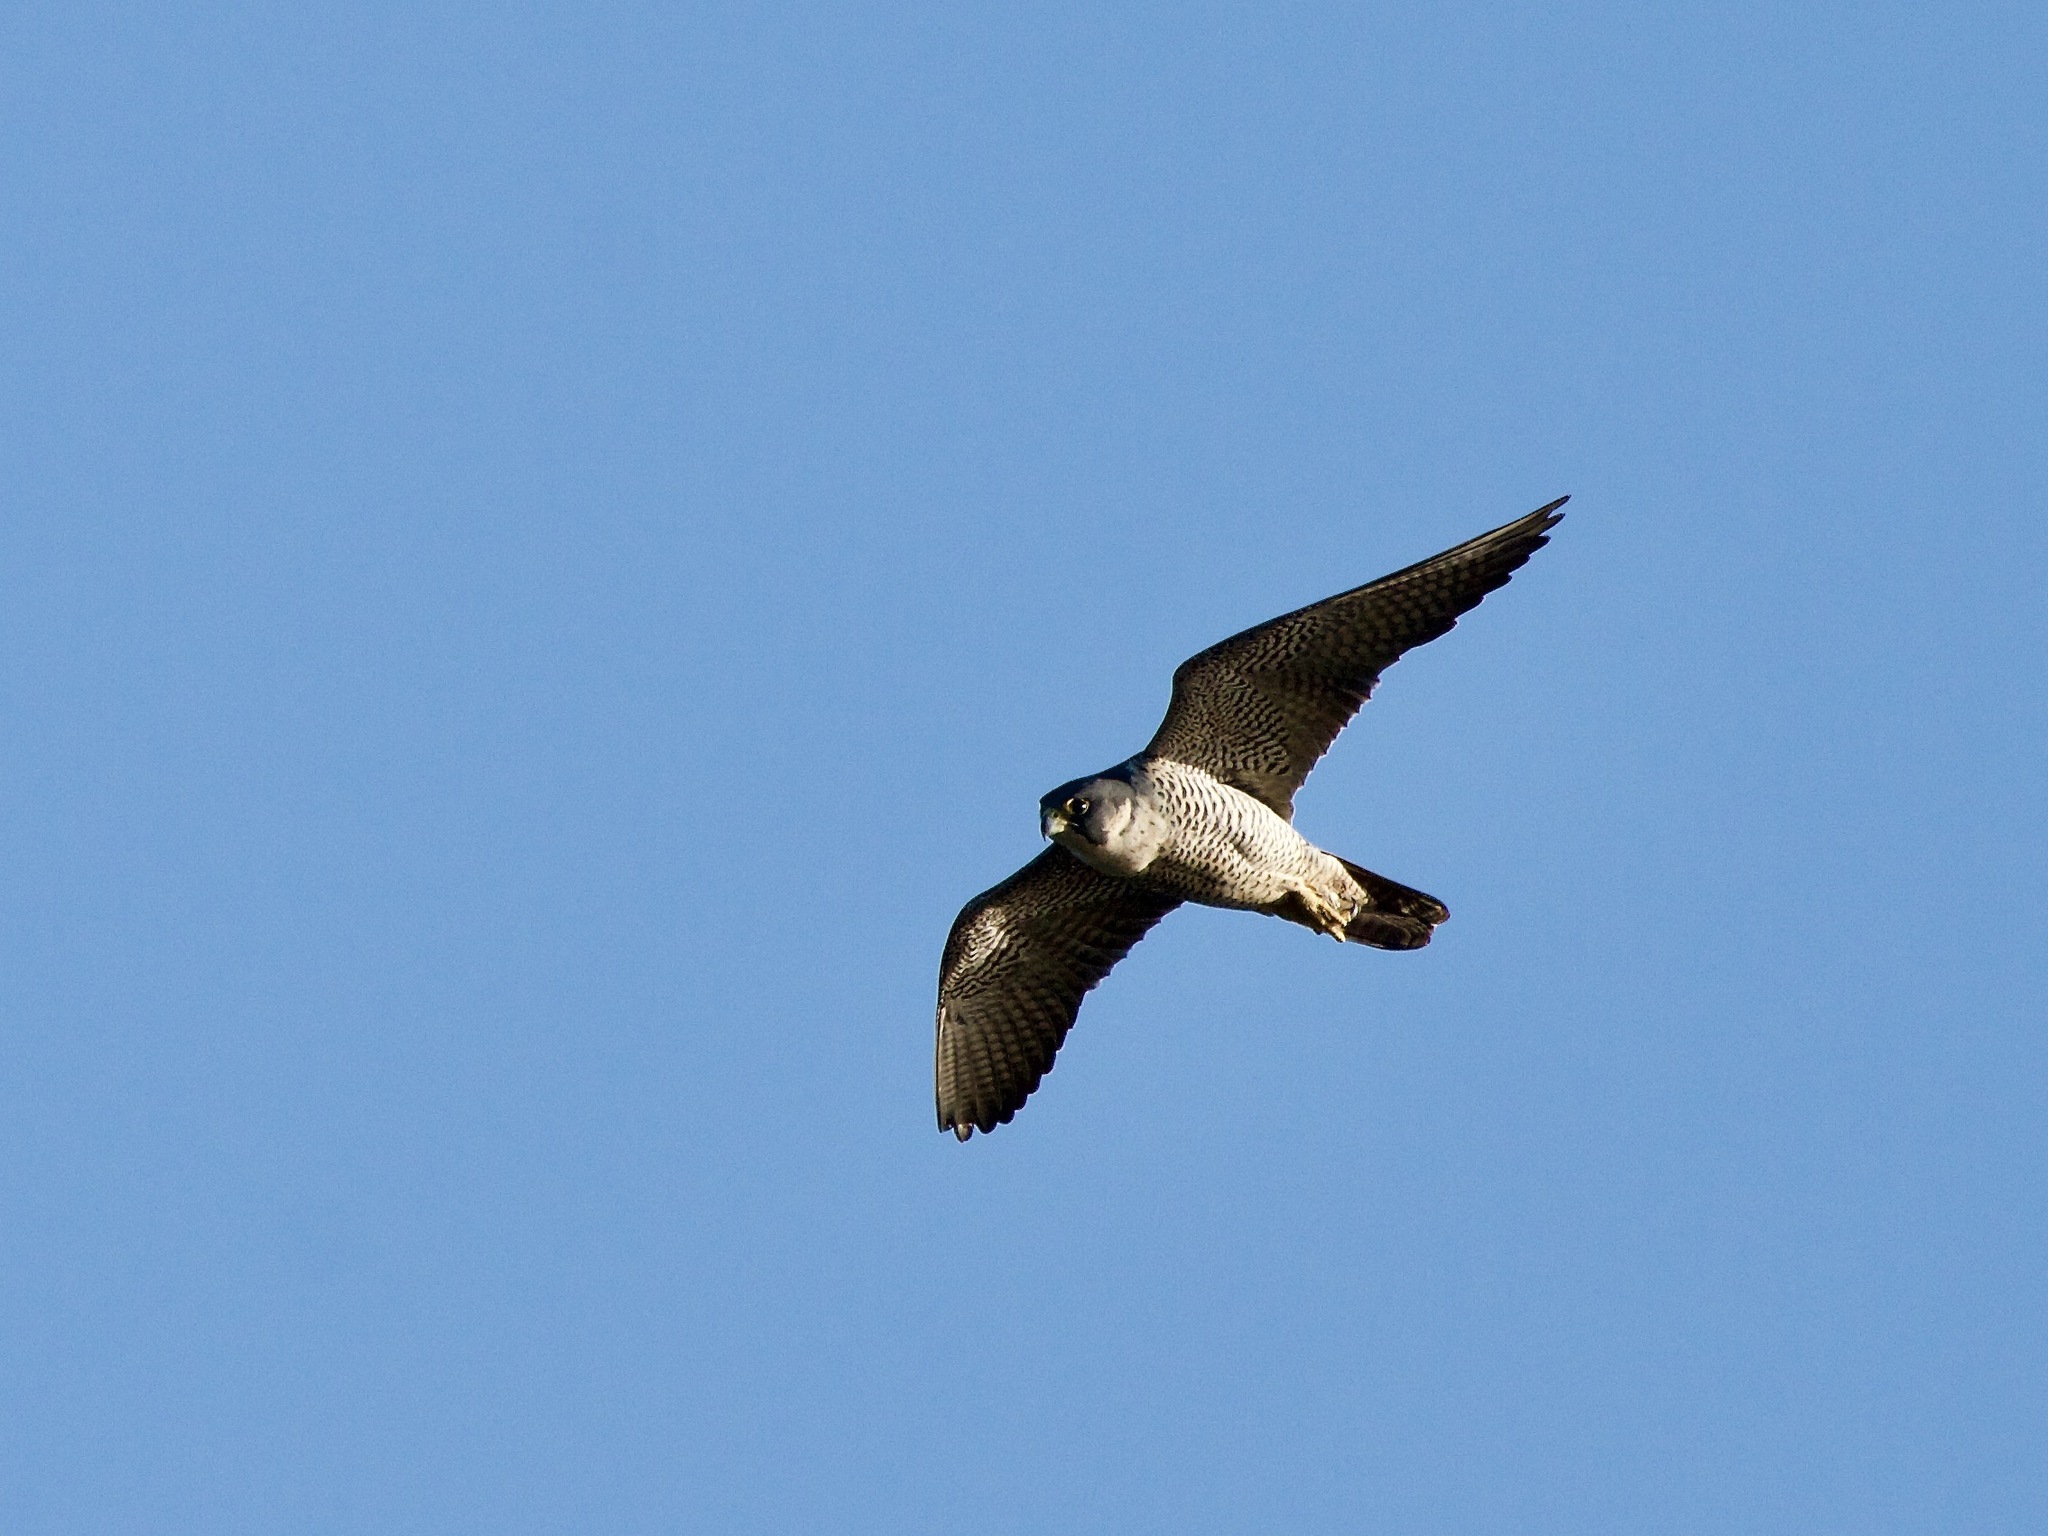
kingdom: Animalia
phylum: Chordata
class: Aves
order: Falconiformes
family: Falconidae
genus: Falco
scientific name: Falco peregrinus
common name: Peregrine falcon
